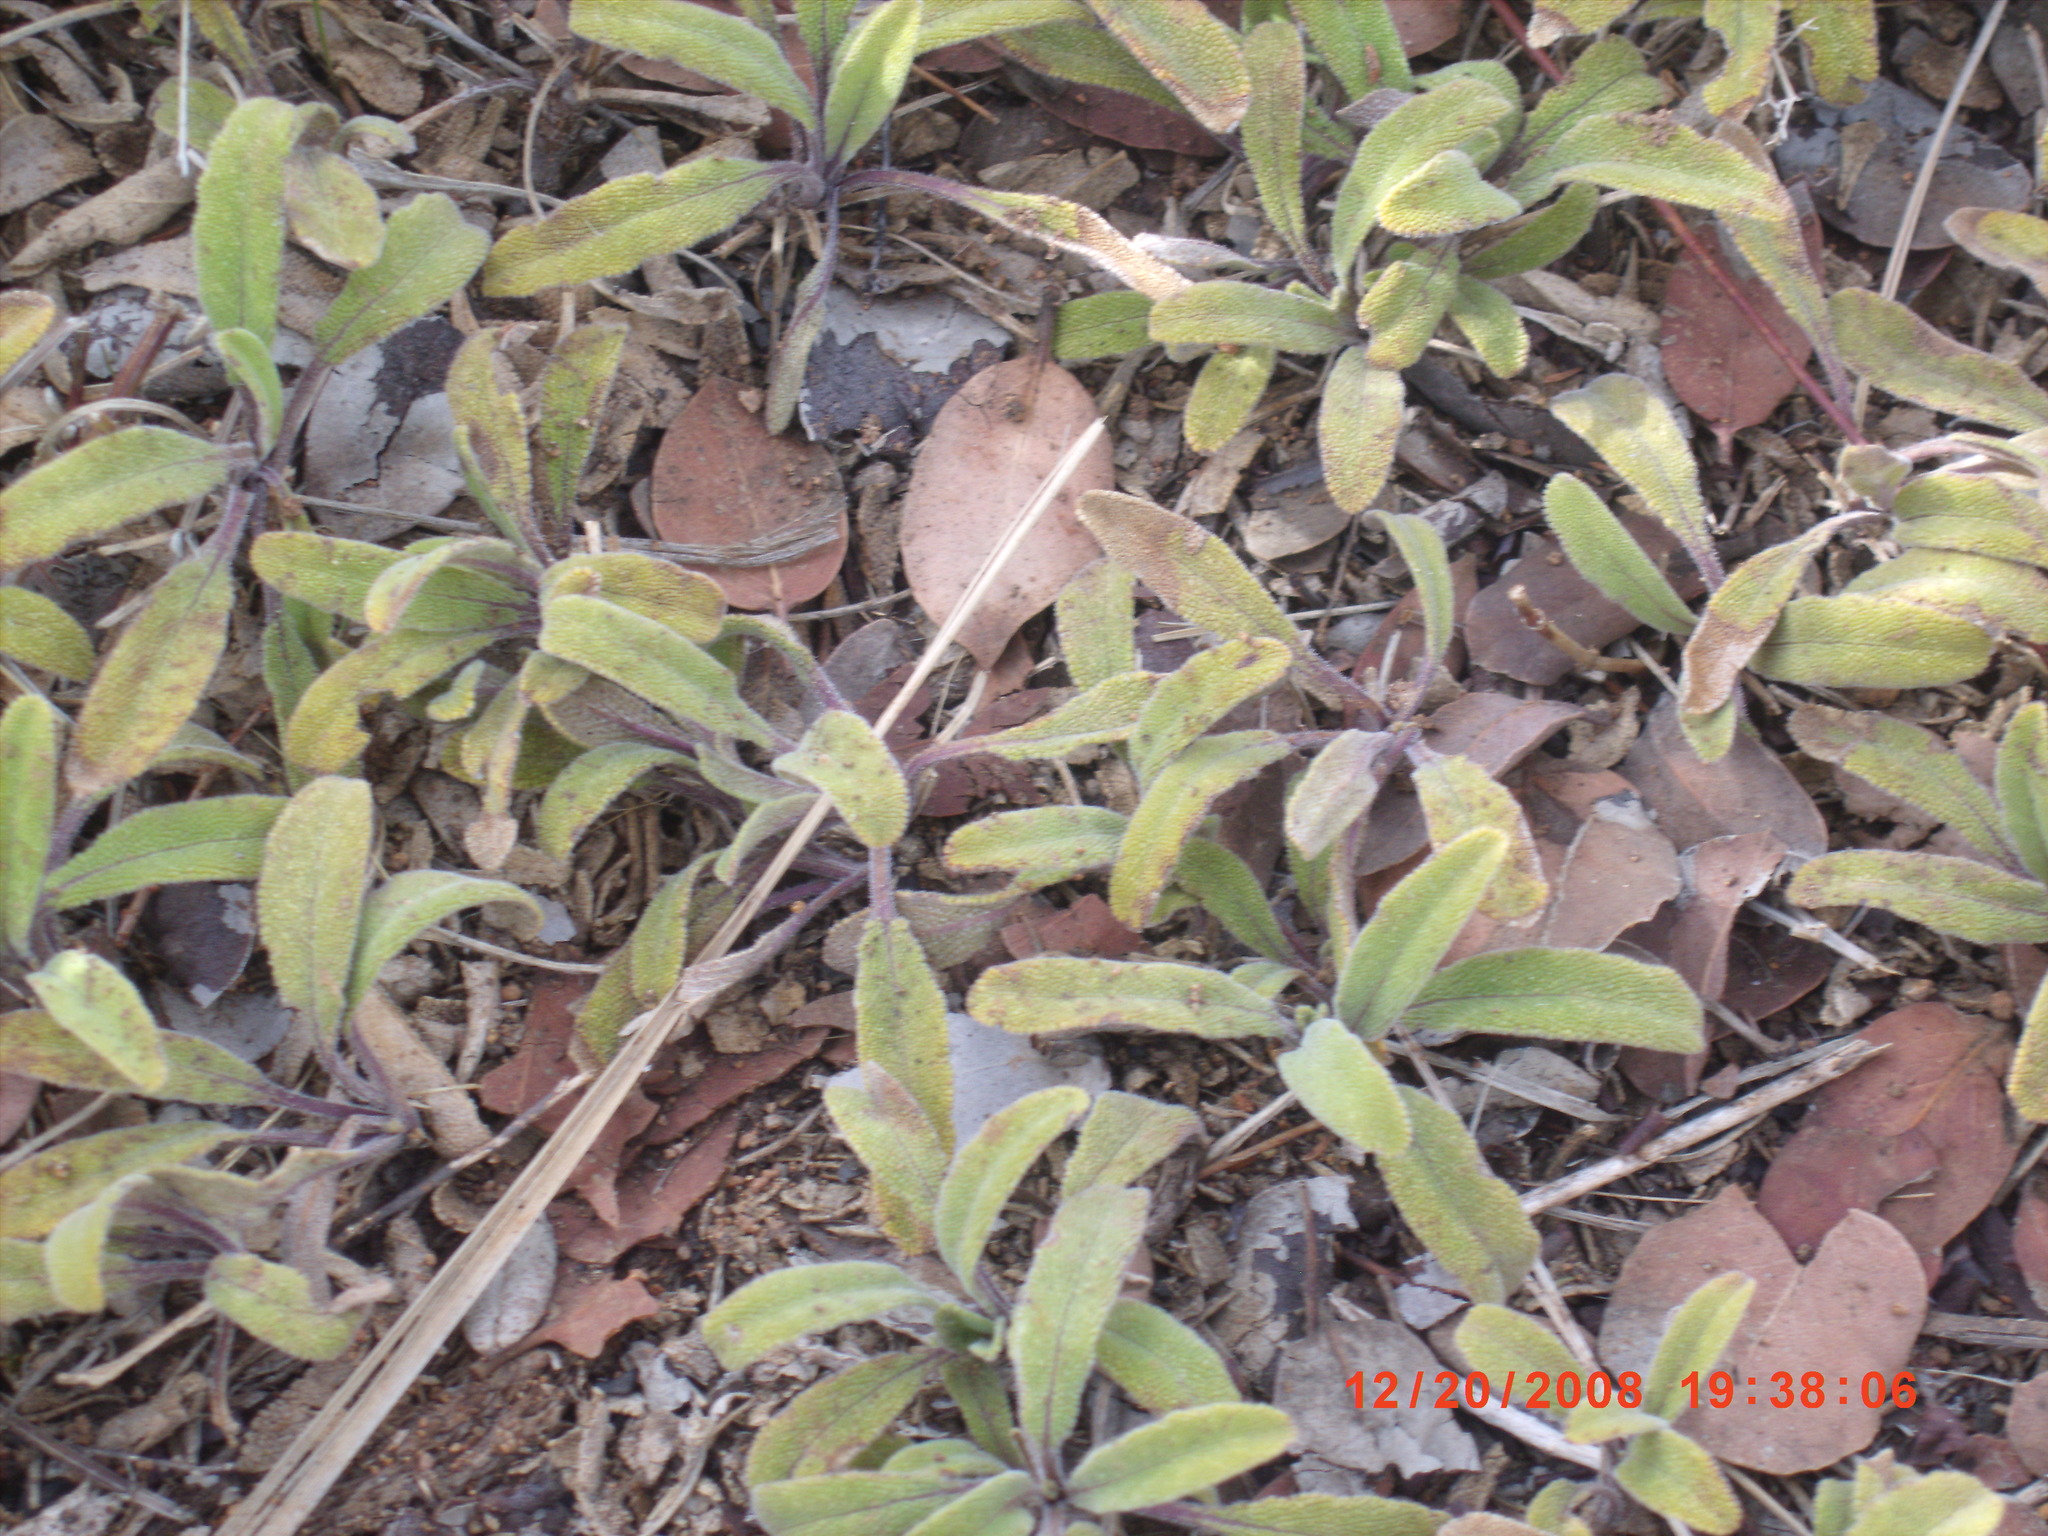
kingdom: Plantae
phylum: Tracheophyta
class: Magnoliopsida
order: Lamiales
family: Lamiaceae
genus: Salvia
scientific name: Salvia sonomensis
